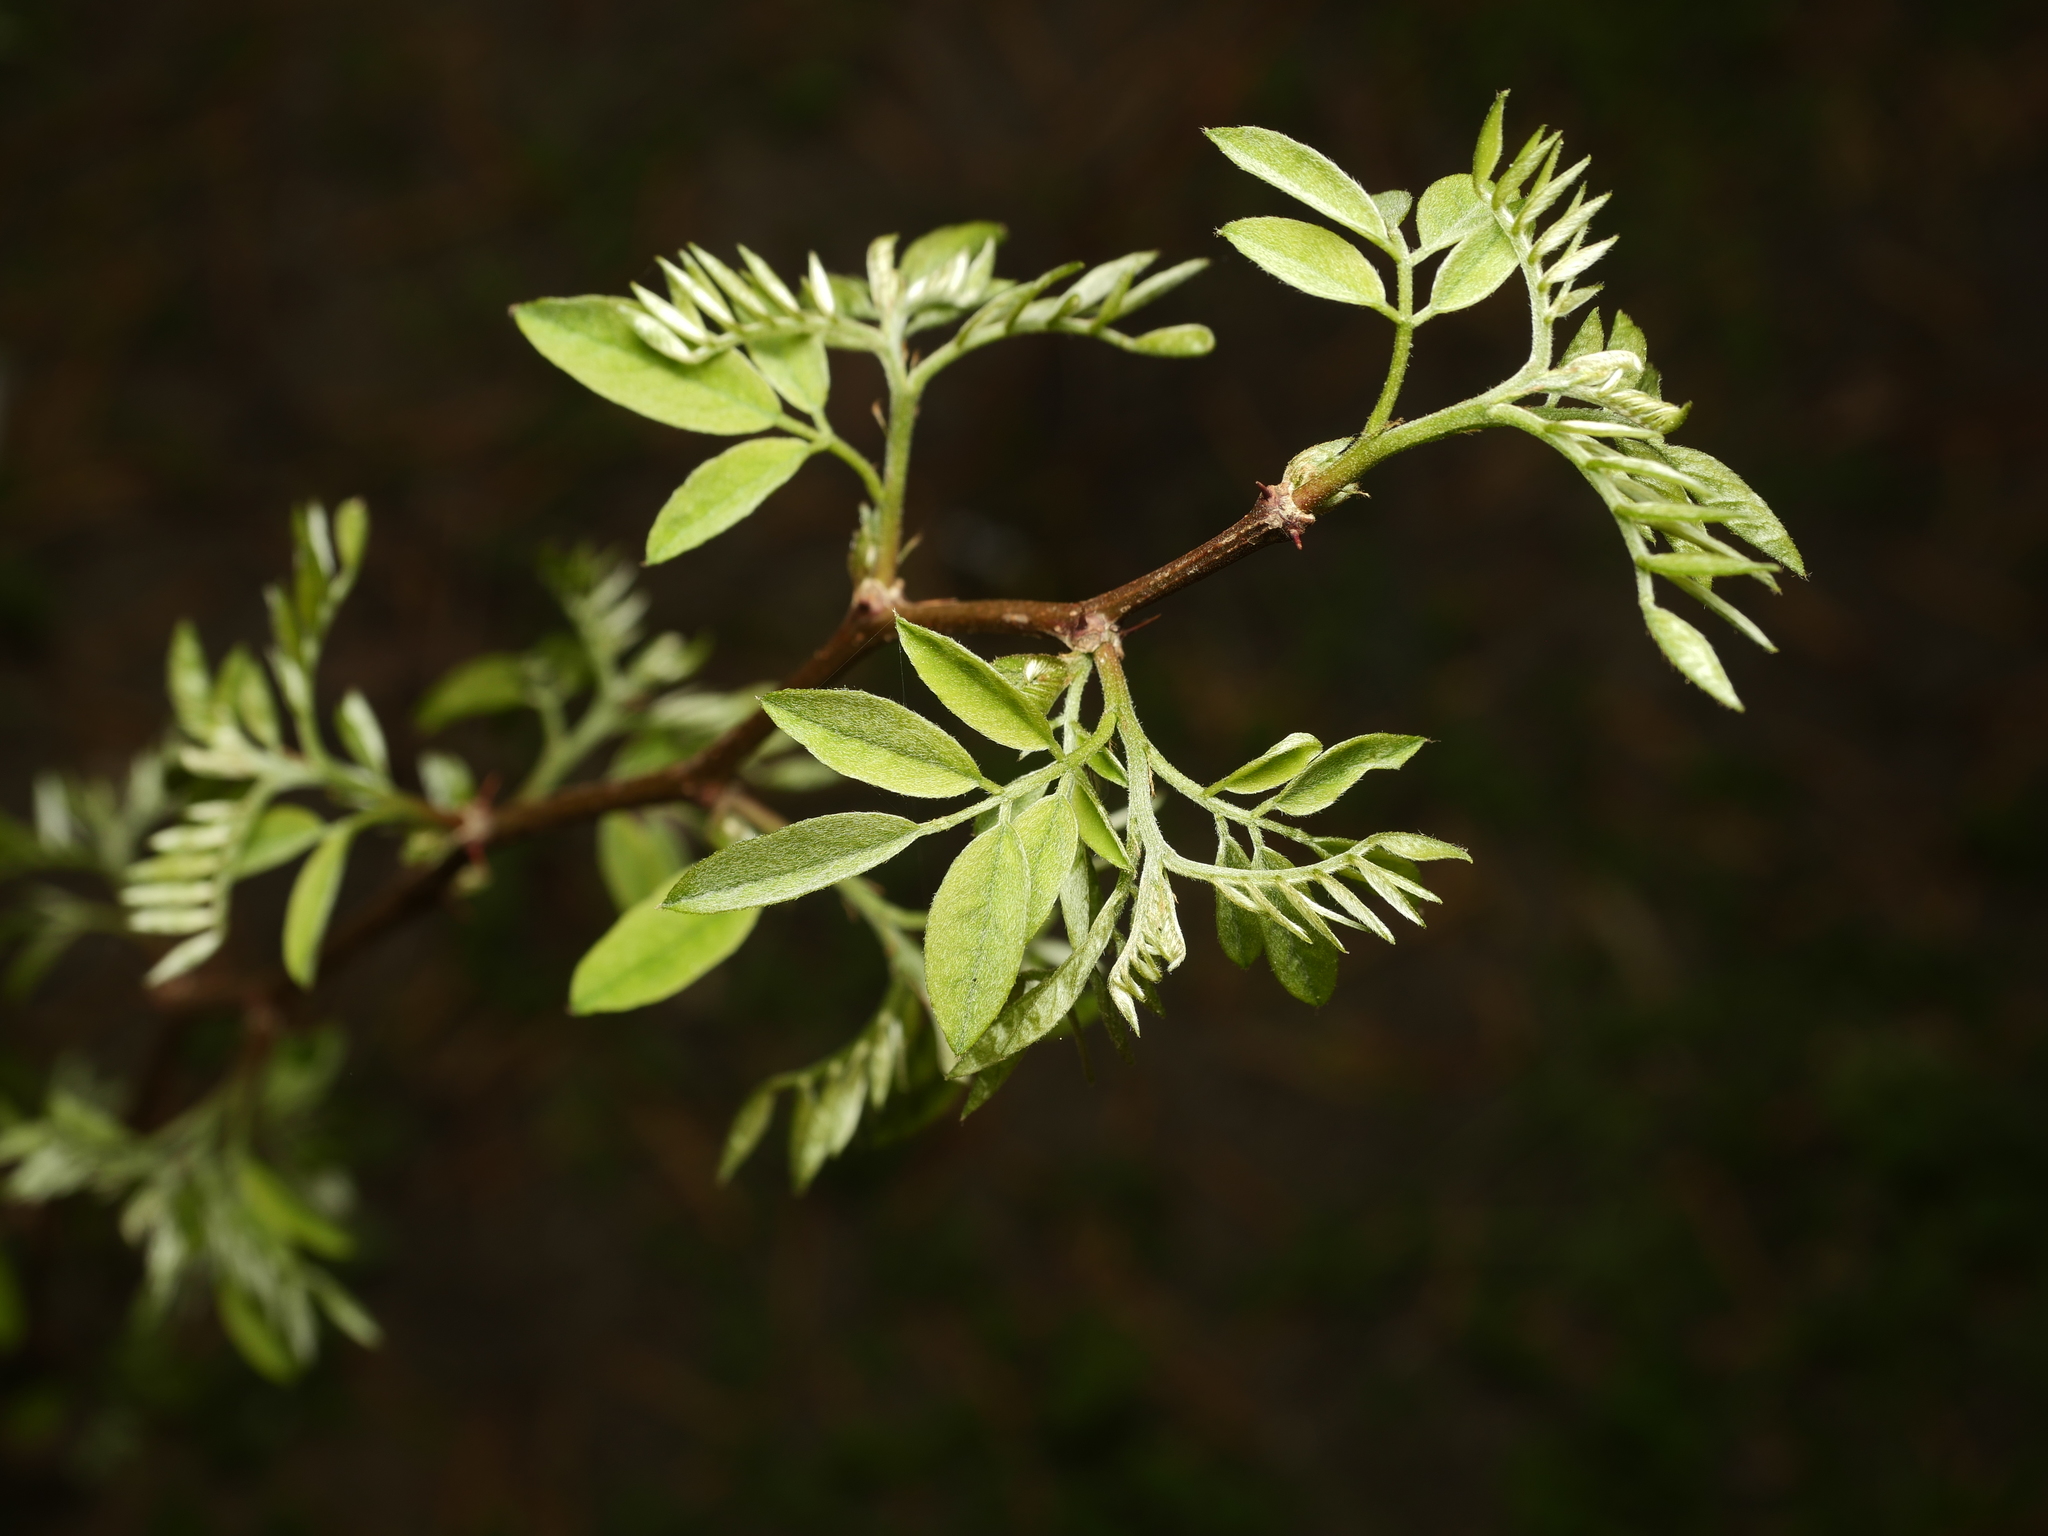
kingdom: Plantae
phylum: Tracheophyta
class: Magnoliopsida
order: Fabales
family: Fabaceae
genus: Robinia
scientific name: Robinia pseudoacacia
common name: Black locust
